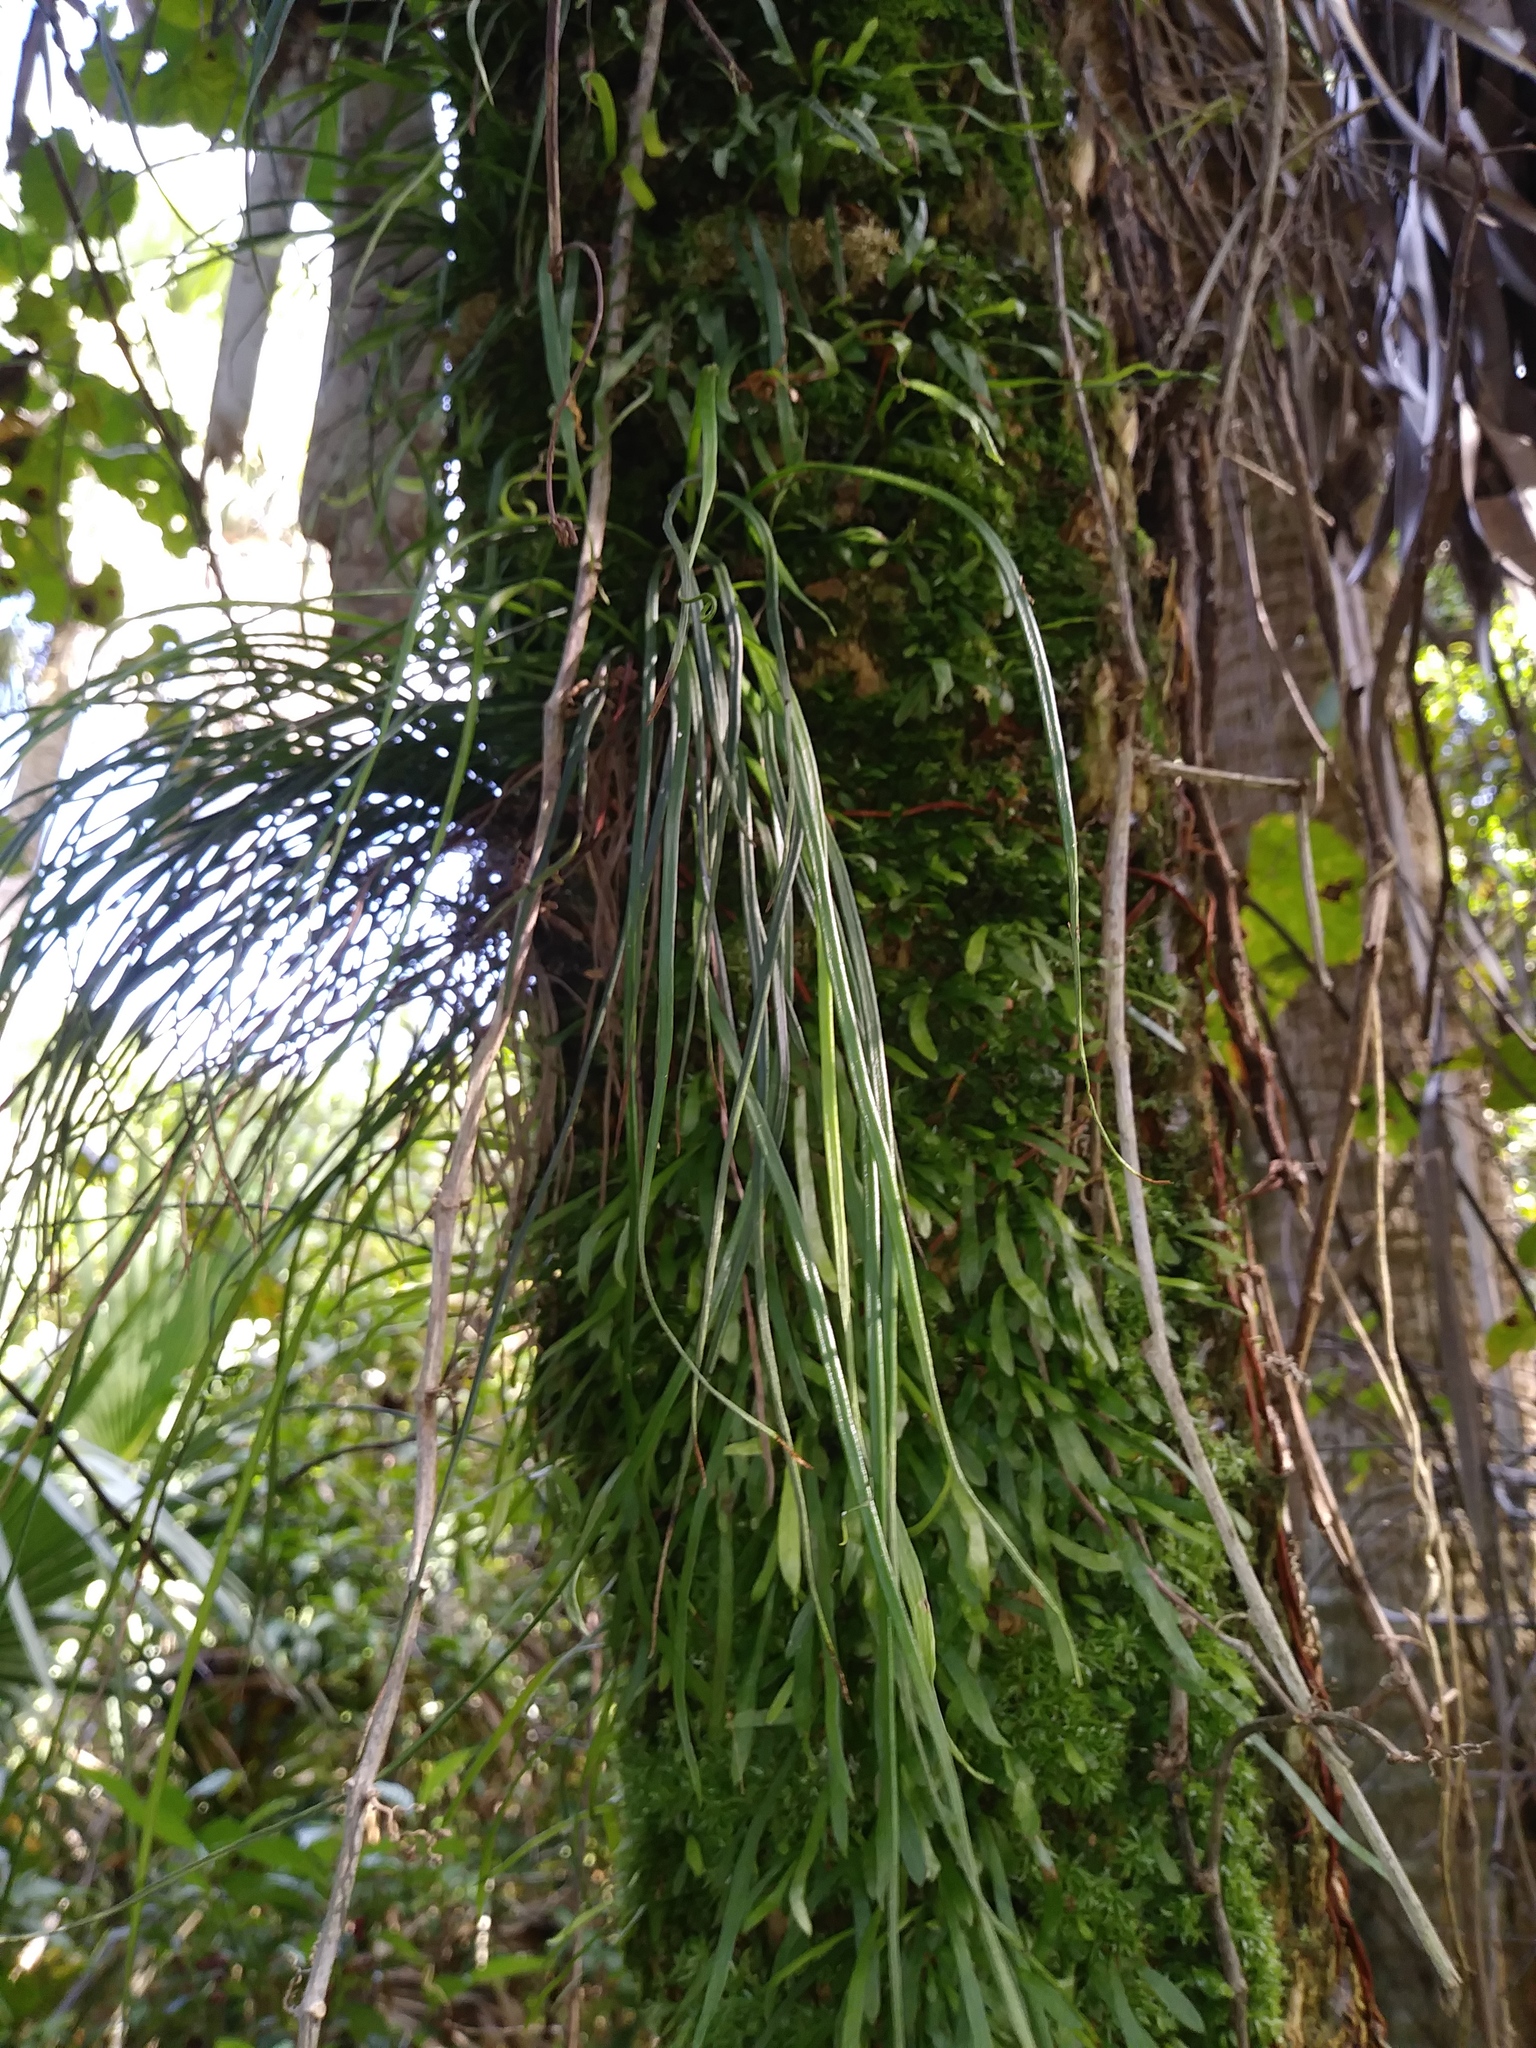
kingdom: Plantae
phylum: Tracheophyta
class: Polypodiopsida
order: Polypodiales
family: Pteridaceae
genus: Vittaria
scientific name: Vittaria lineata
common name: Shoestring fern
